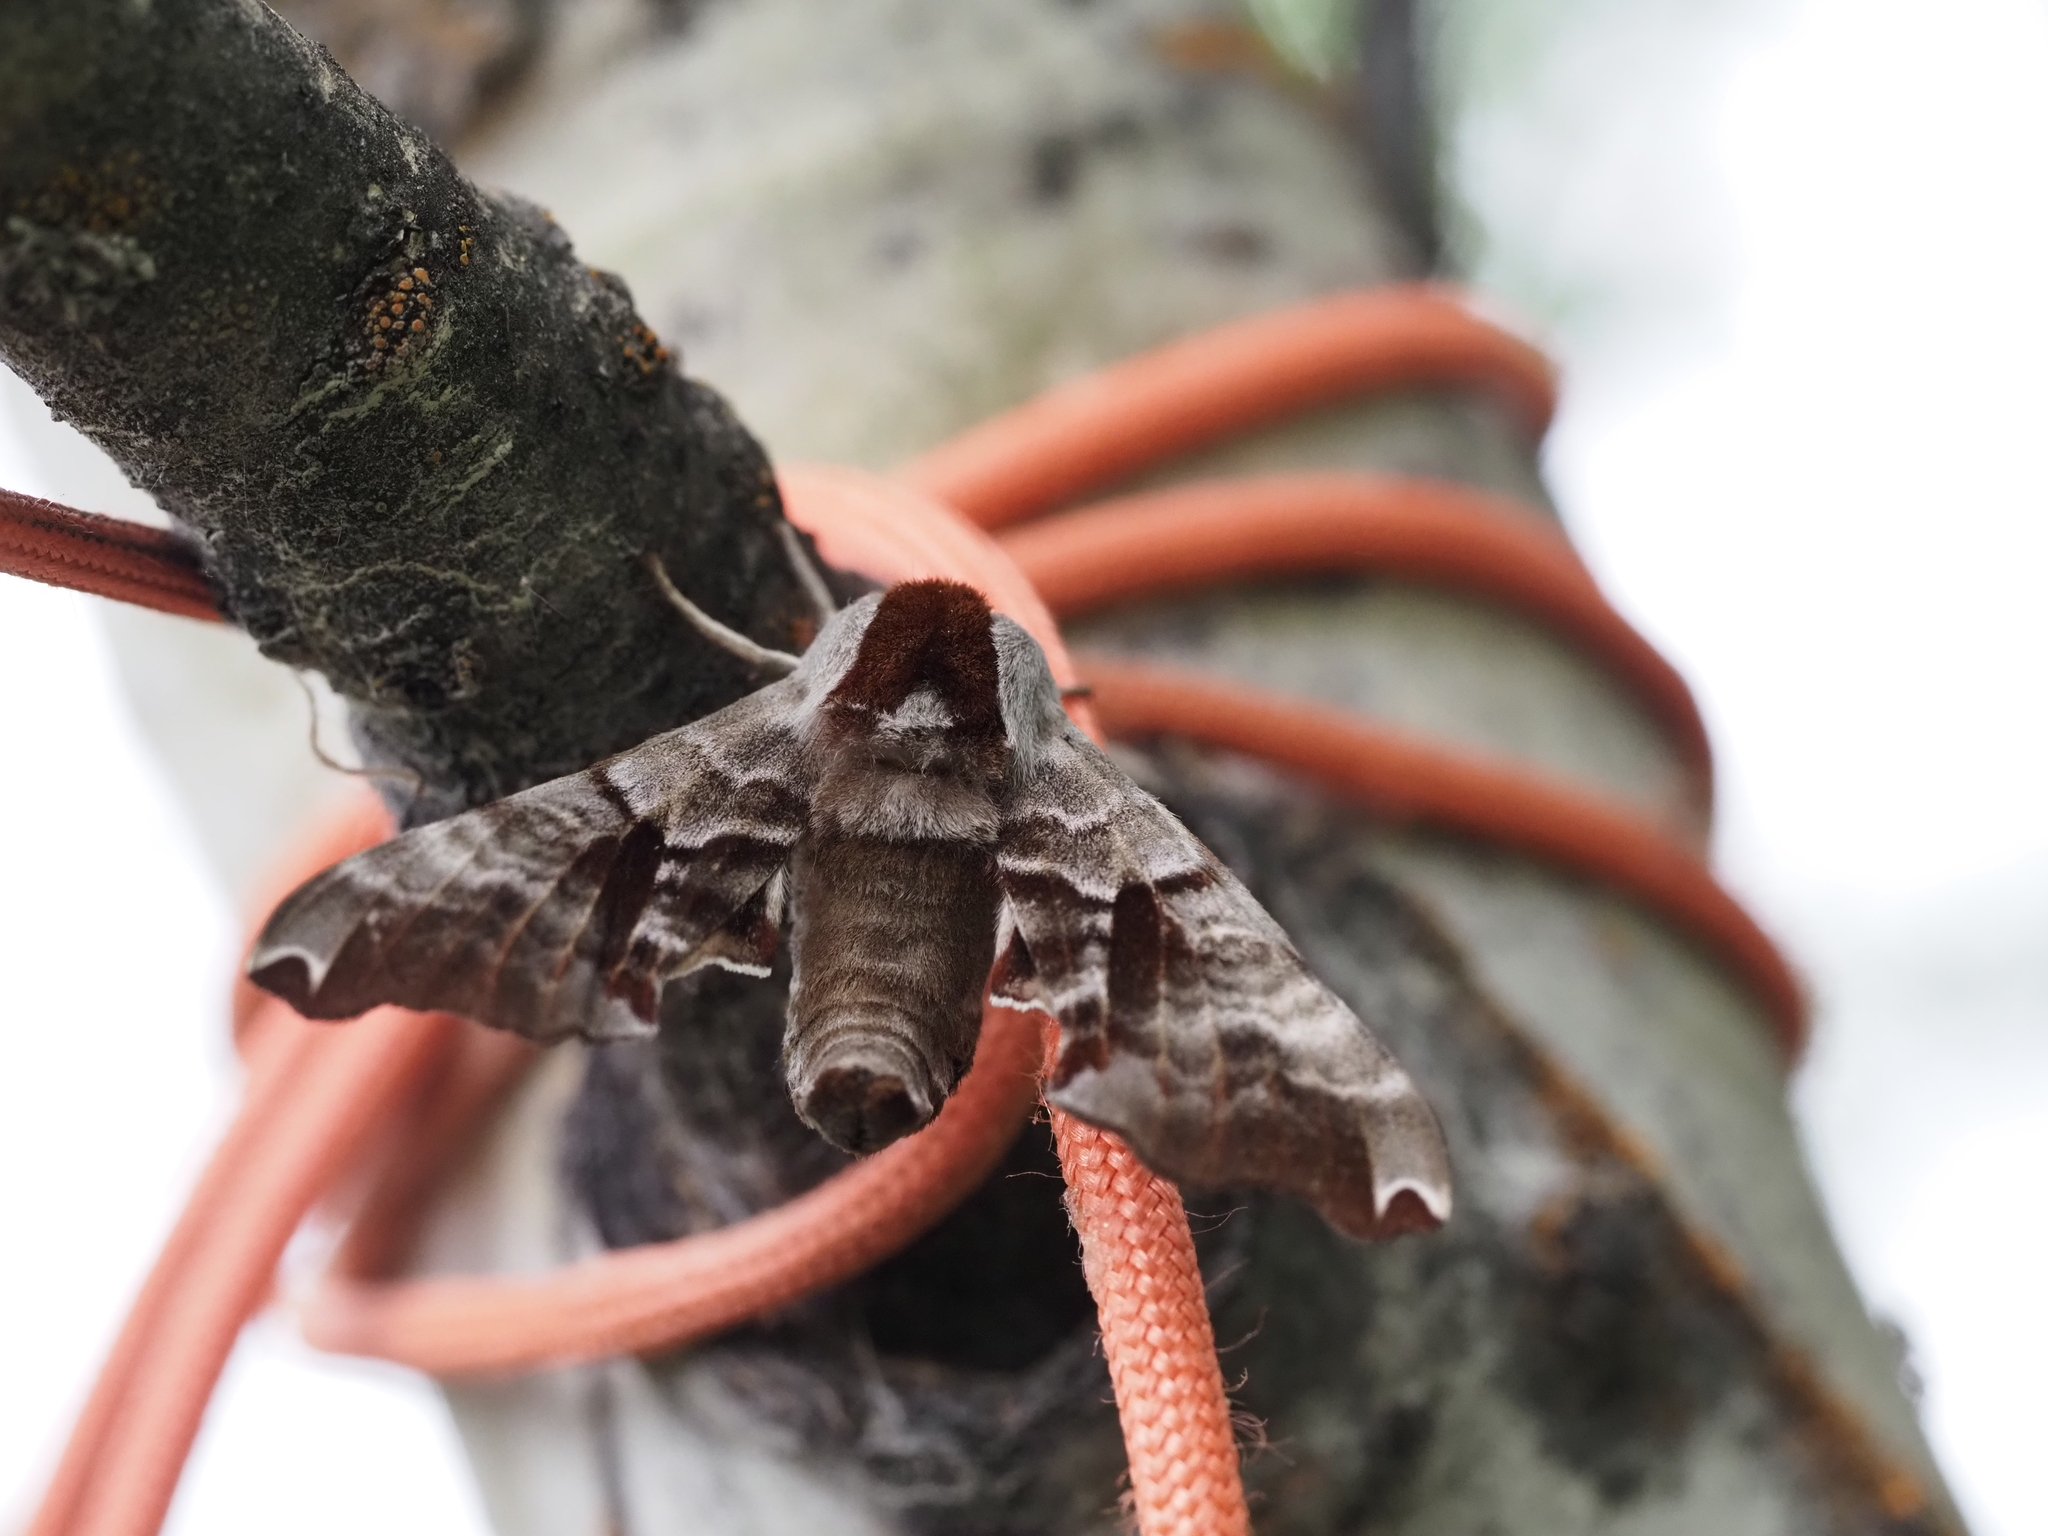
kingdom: Animalia
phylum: Arthropoda
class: Insecta
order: Lepidoptera
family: Sphingidae
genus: Smerinthus
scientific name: Smerinthus jamaicensis
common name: Twin spotted sphinx
